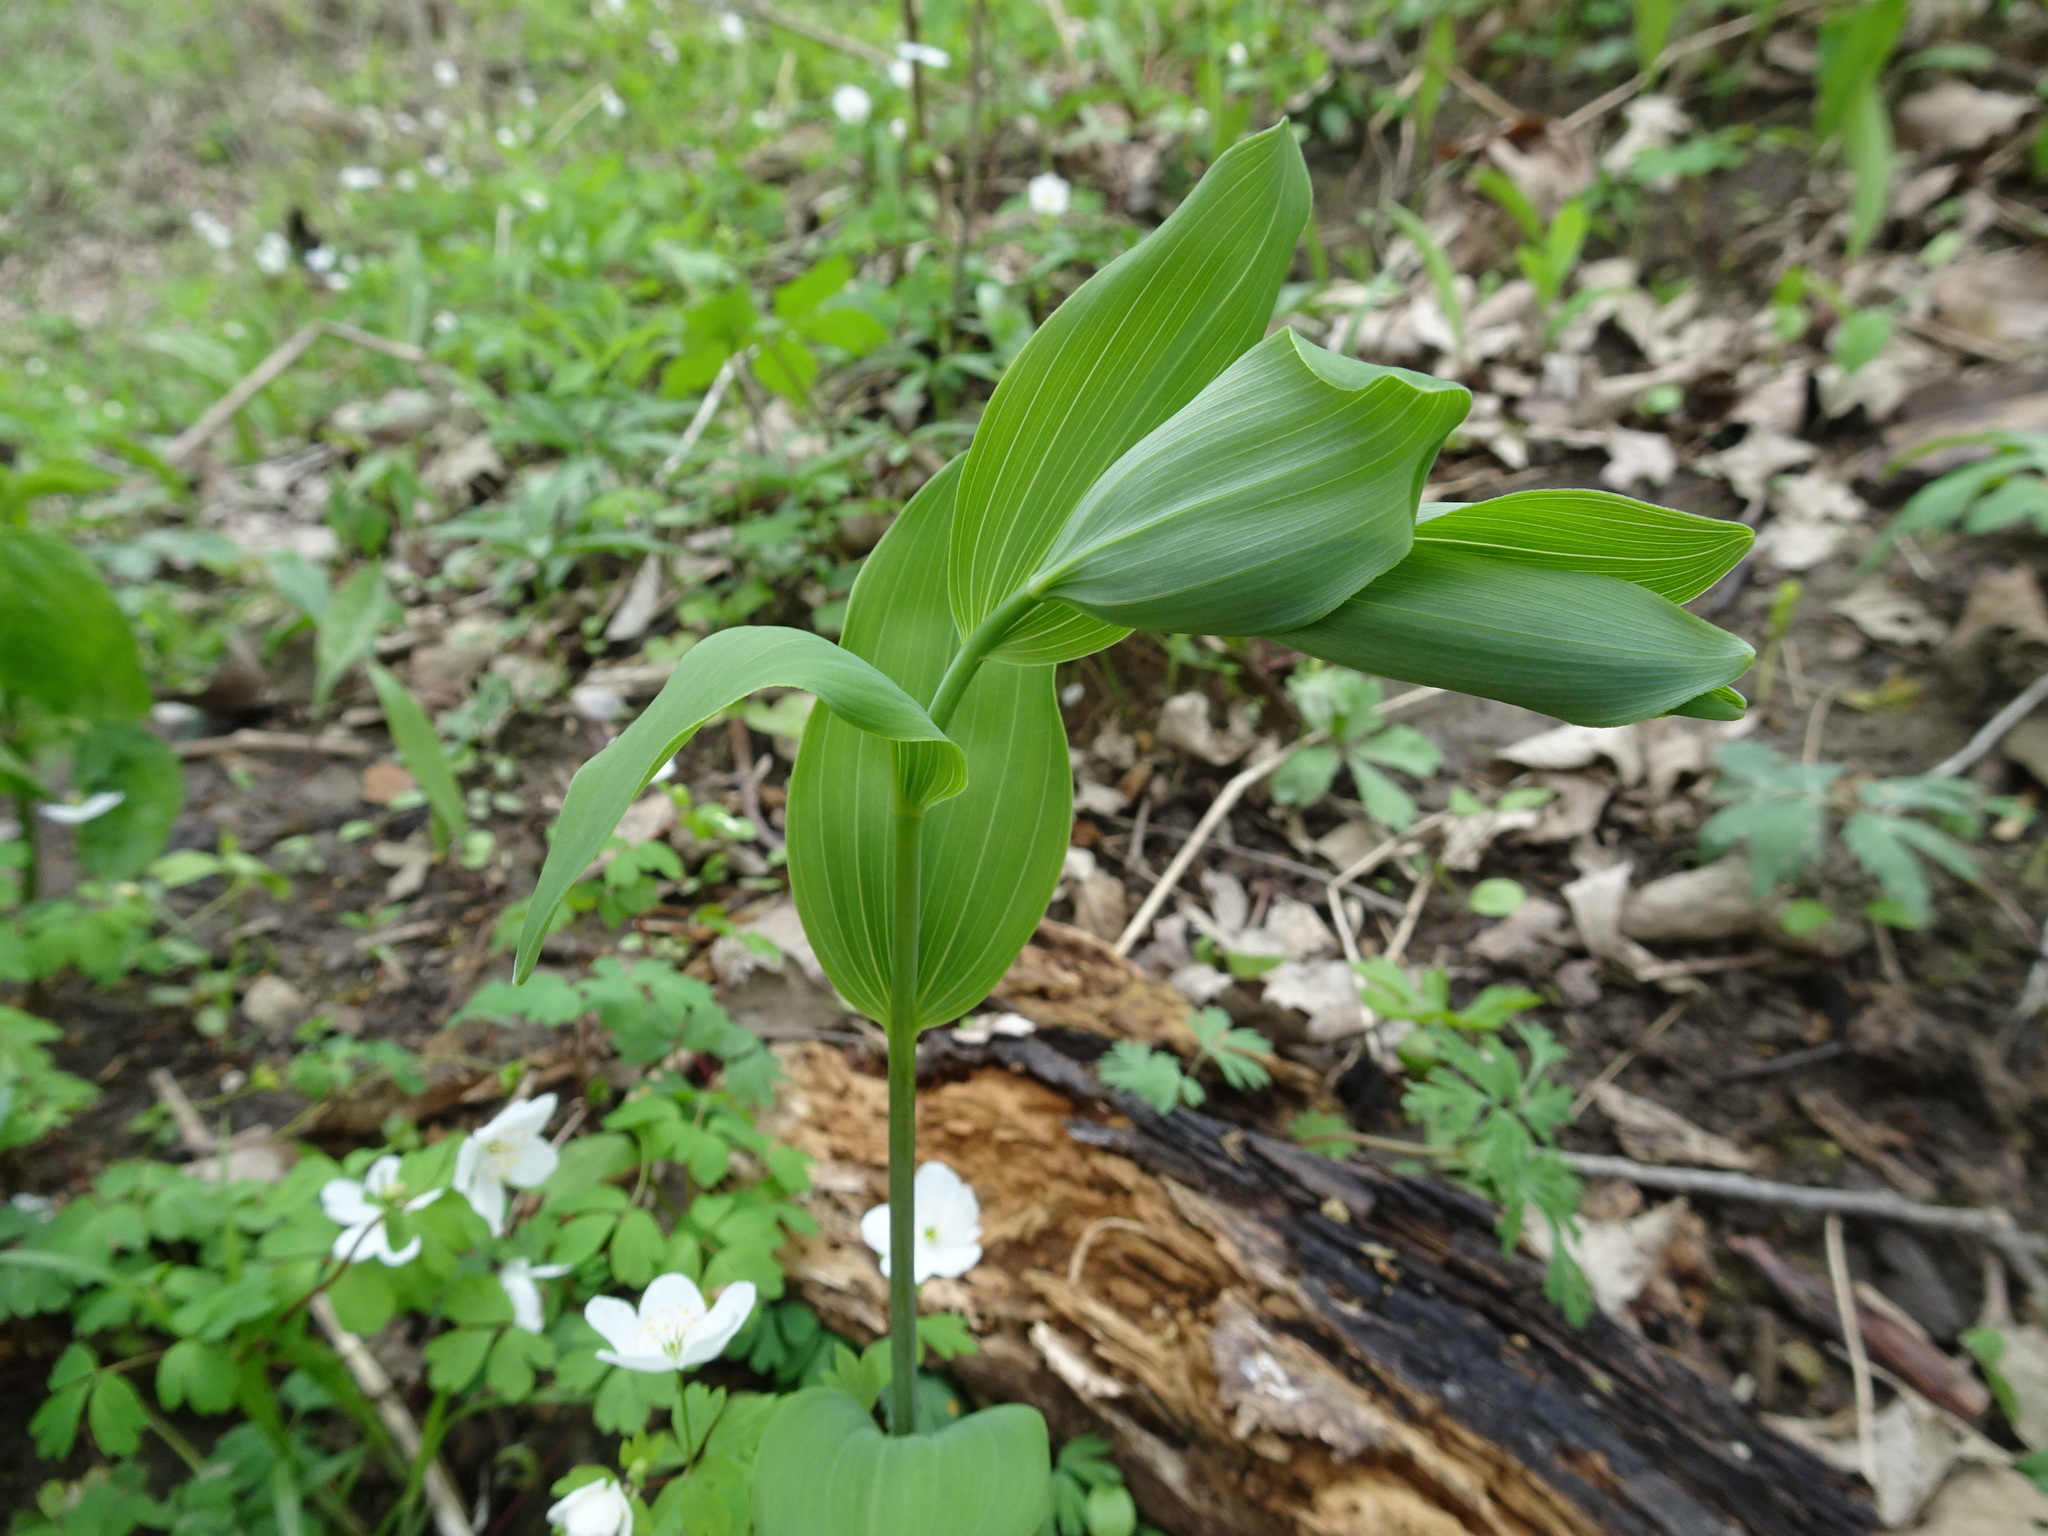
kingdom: Plantae
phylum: Tracheophyta
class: Liliopsida
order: Asparagales
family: Asparagaceae
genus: Polygonatum
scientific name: Polygonatum biflorum
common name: American solomon's-seal
